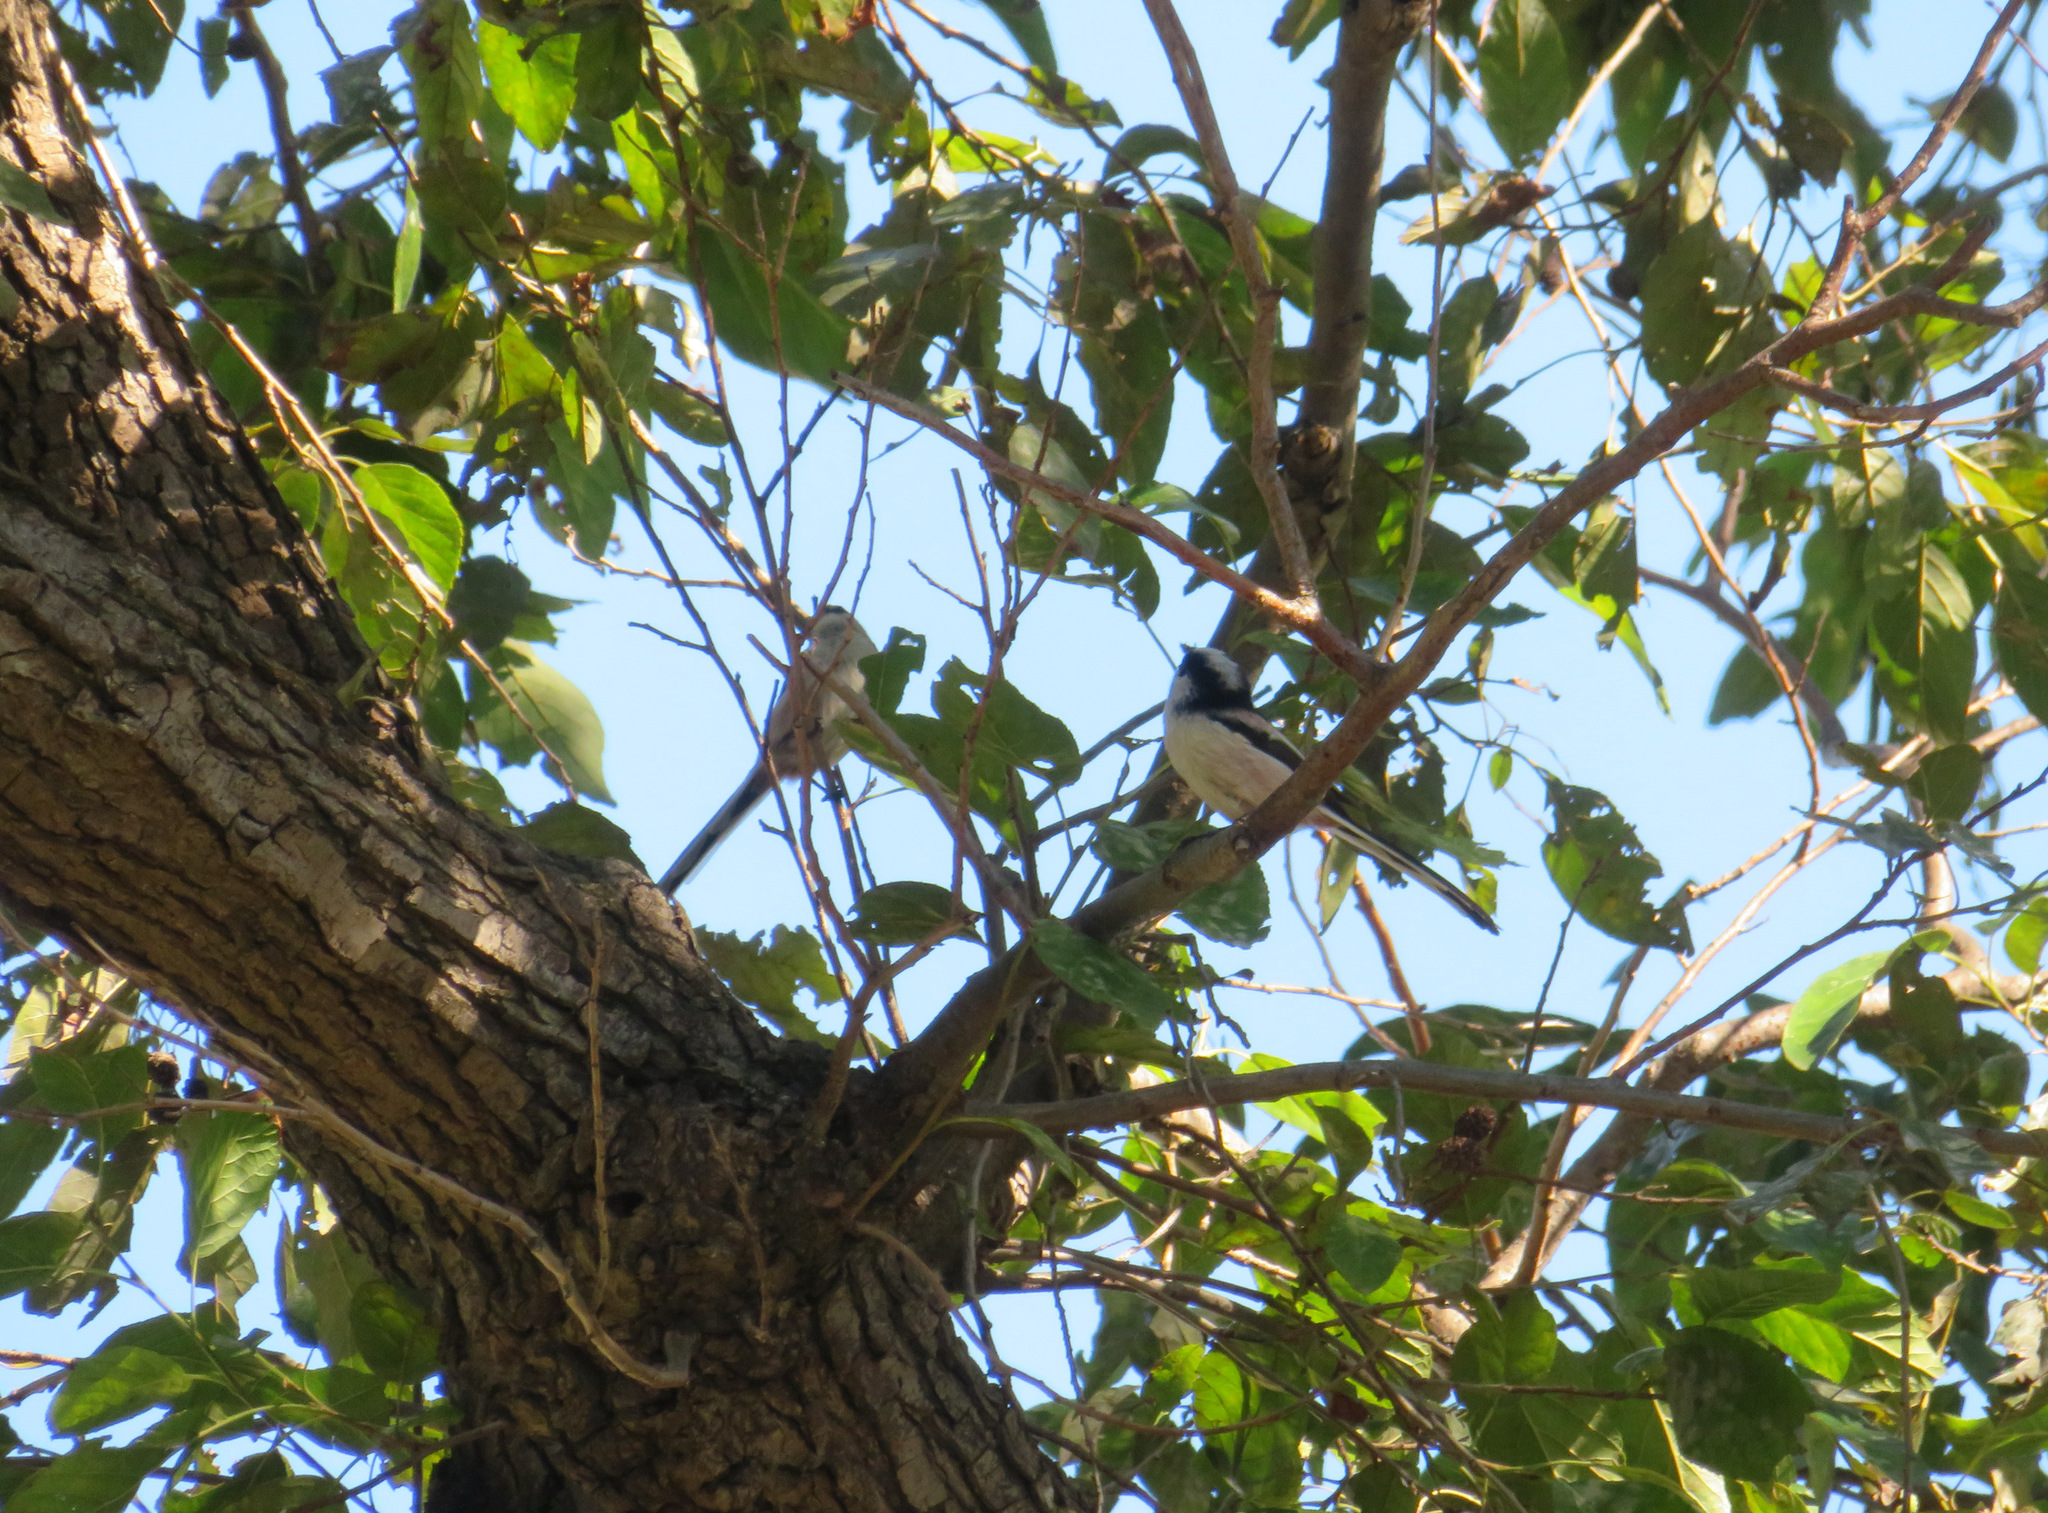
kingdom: Animalia
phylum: Chordata
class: Aves
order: Passeriformes
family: Aegithalidae
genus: Aegithalos
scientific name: Aegithalos caudatus
